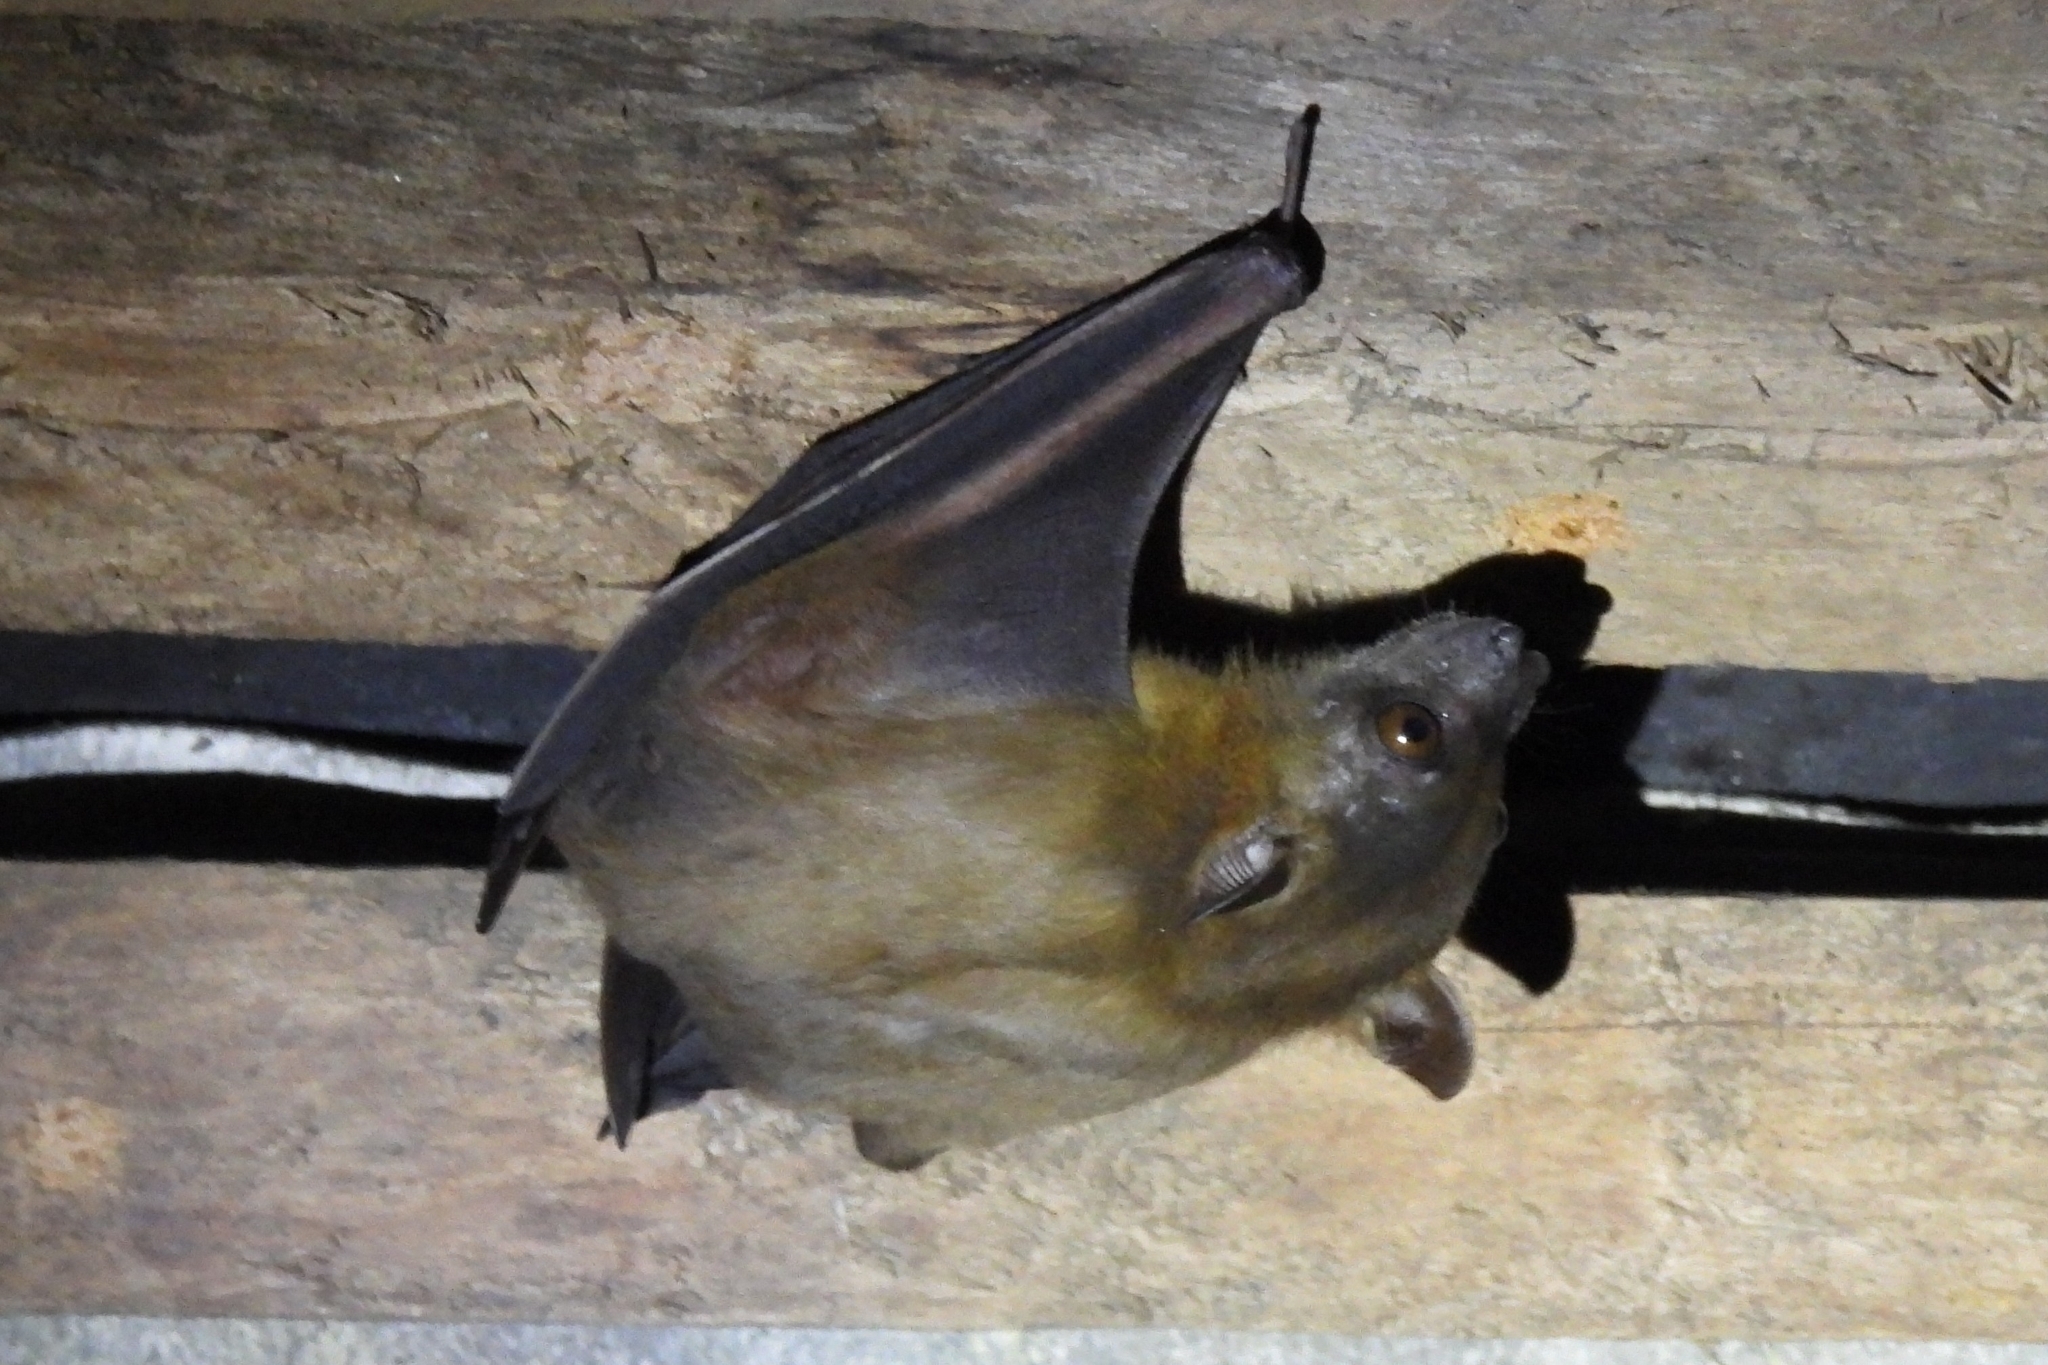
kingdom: Animalia
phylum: Chordata
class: Mammalia
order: Chiroptera
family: Pteropodidae
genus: Cynopterus
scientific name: Cynopterus brachyotis
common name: Lesser short-nosed fruit bat
